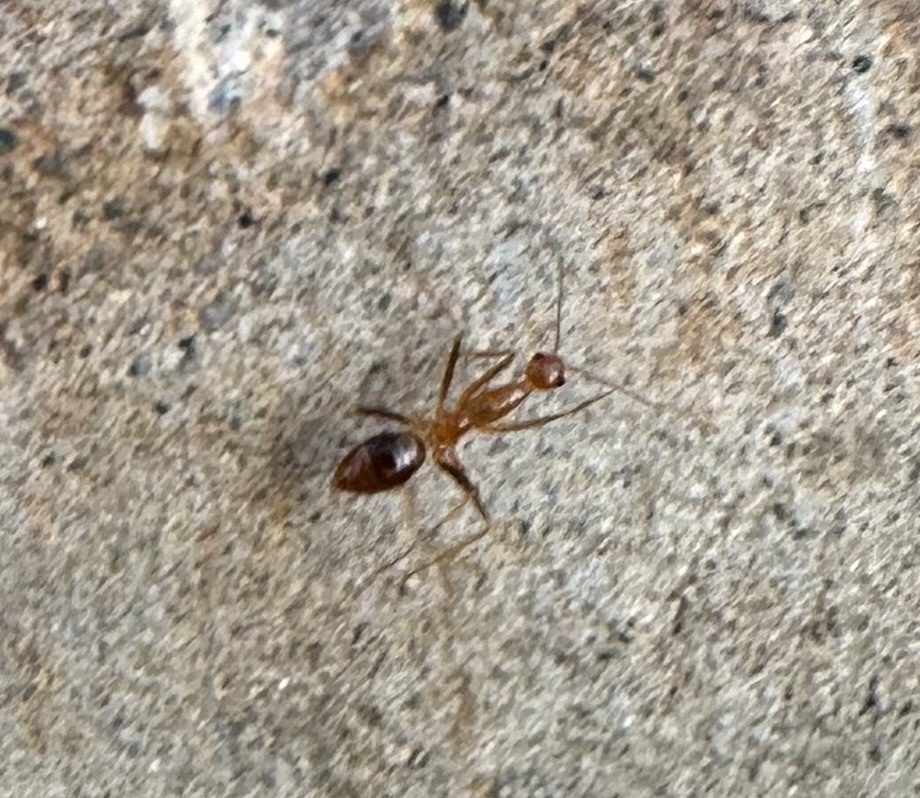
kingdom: Animalia
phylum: Arthropoda
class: Insecta
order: Hymenoptera
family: Formicidae
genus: Anoplolepis
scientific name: Anoplolepis gracilipes
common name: Ant
